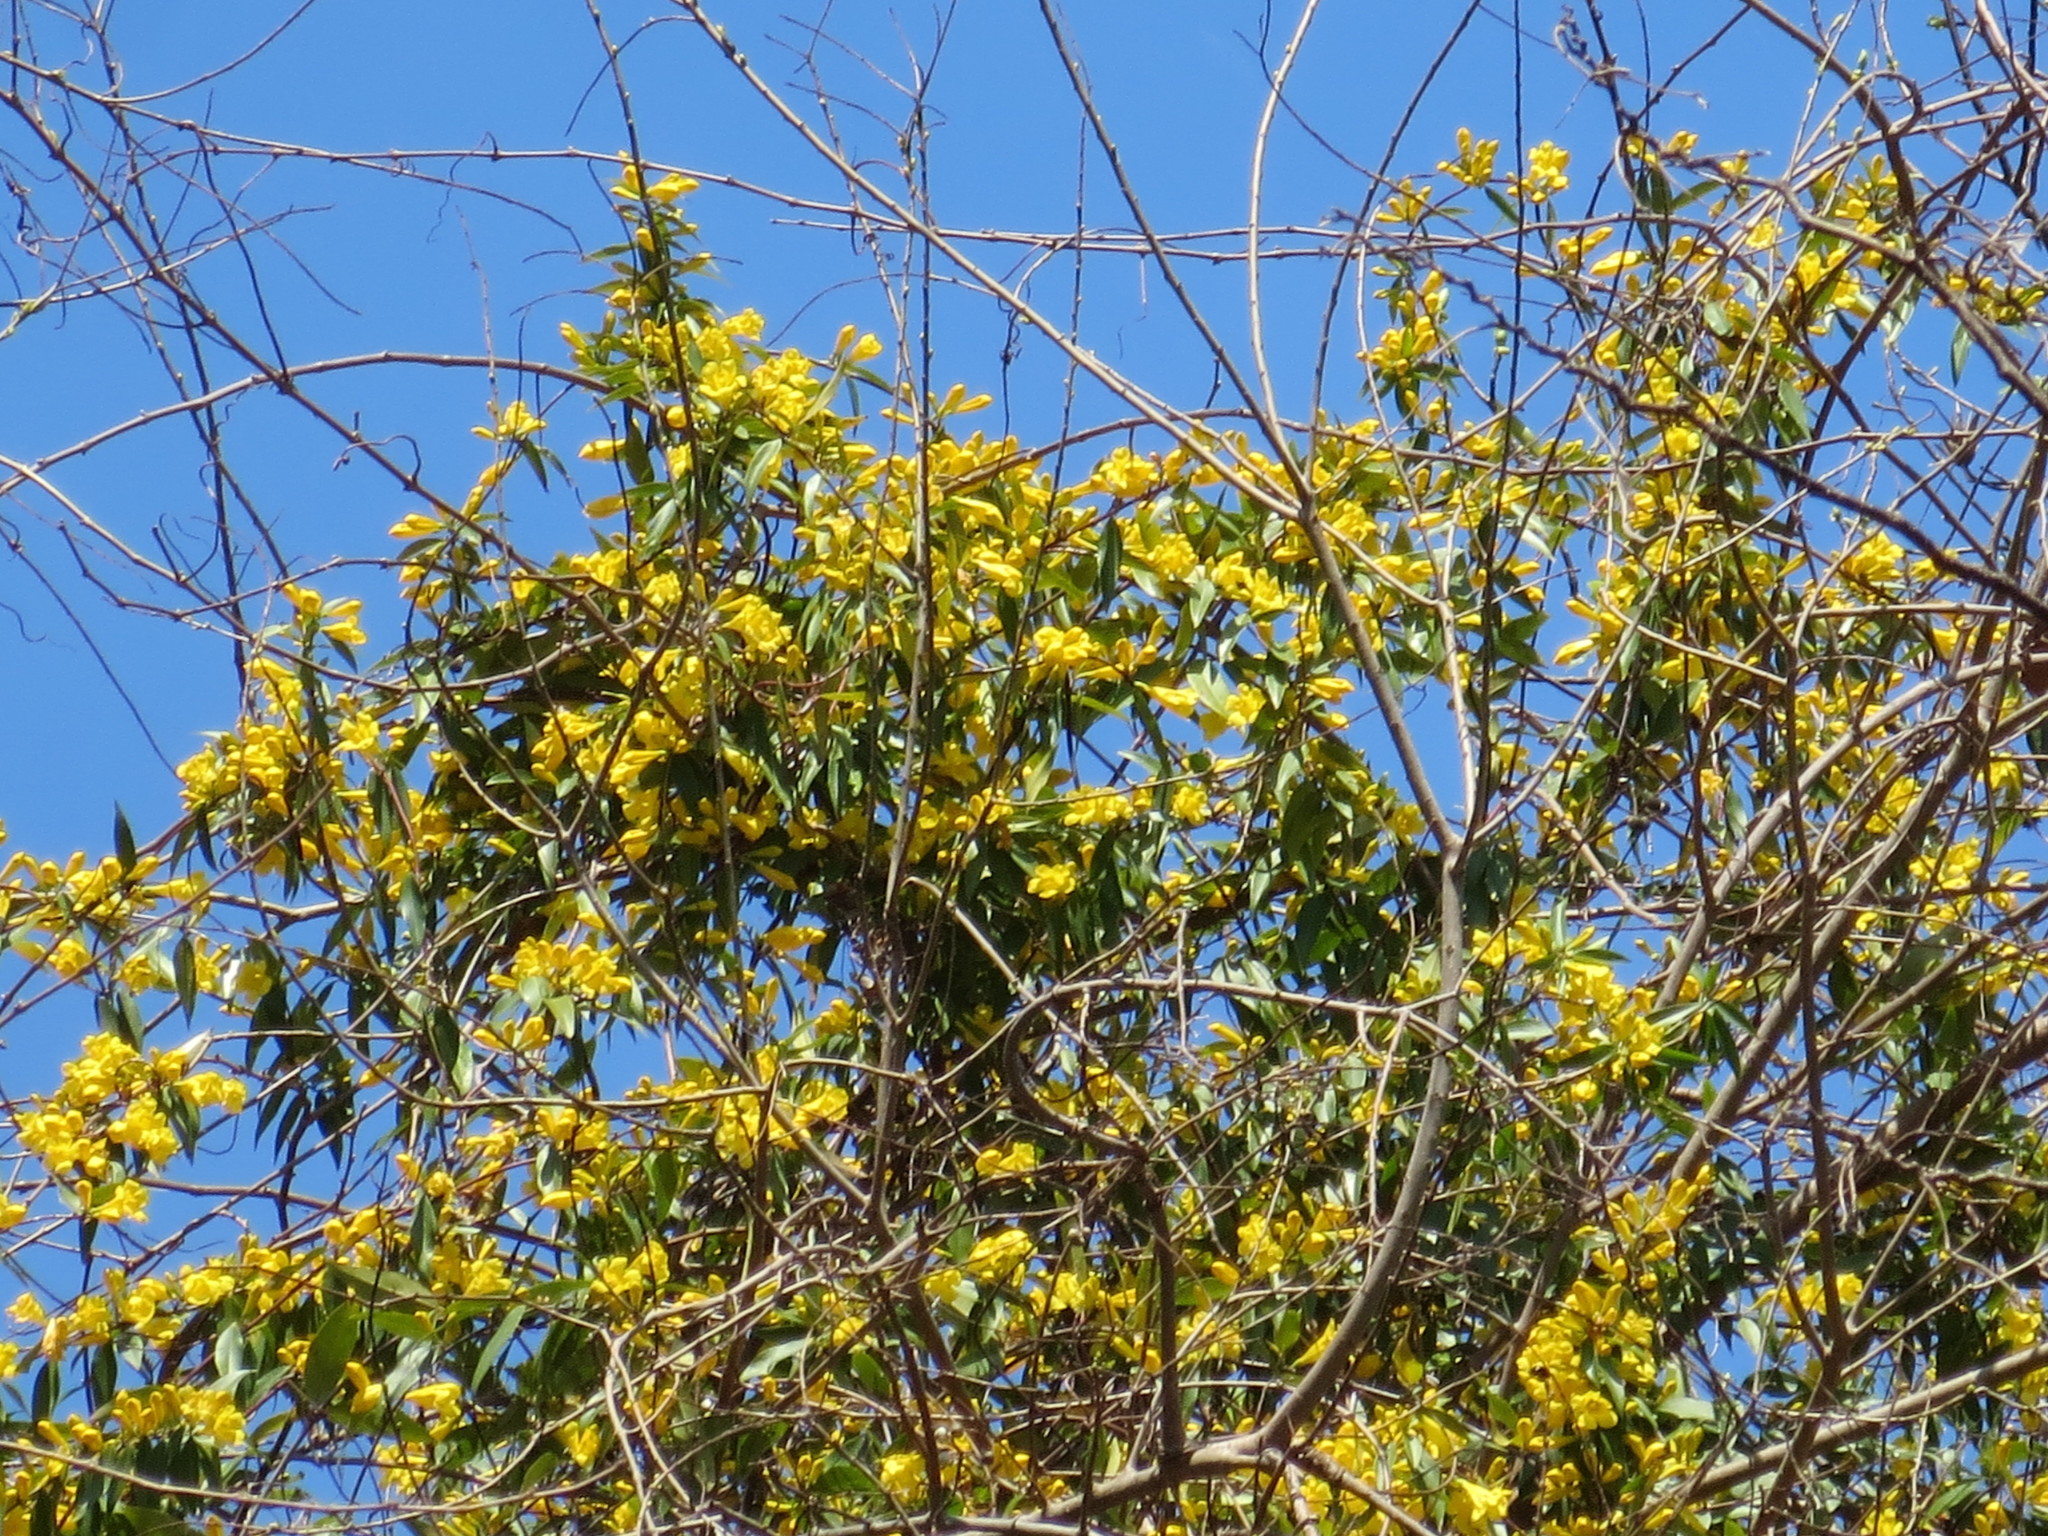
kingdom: Plantae
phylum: Tracheophyta
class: Magnoliopsida
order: Gentianales
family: Gelsemiaceae
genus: Gelsemium
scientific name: Gelsemium sempervirens
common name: Carolina-jasmine
